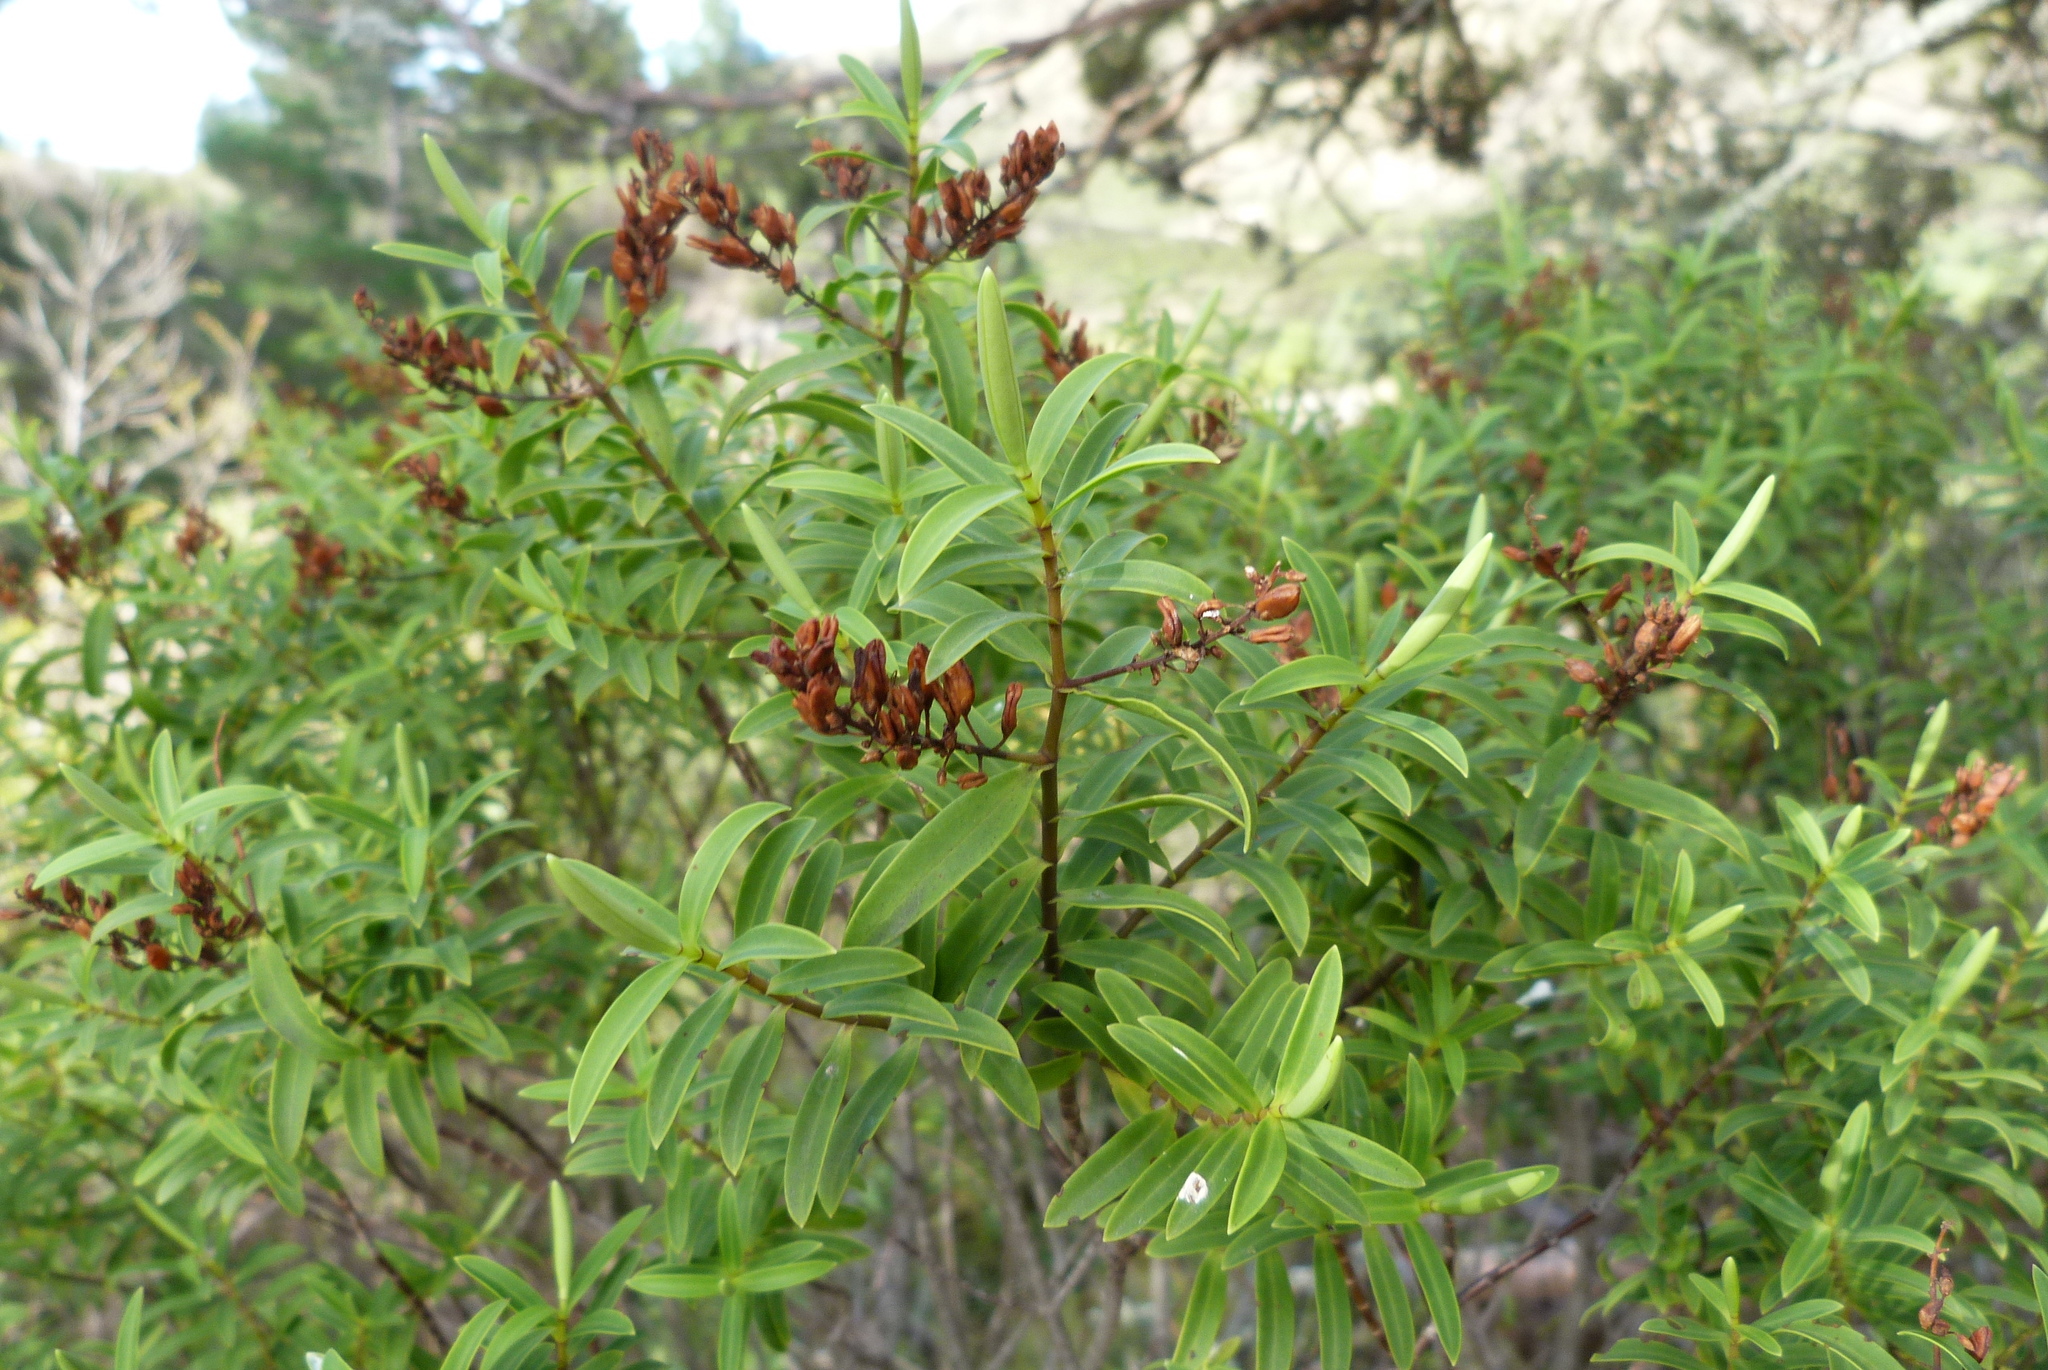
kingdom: Plantae
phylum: Tracheophyta
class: Magnoliopsida
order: Lamiales
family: Plantaginaceae
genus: Veronica
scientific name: Veronica traversii
